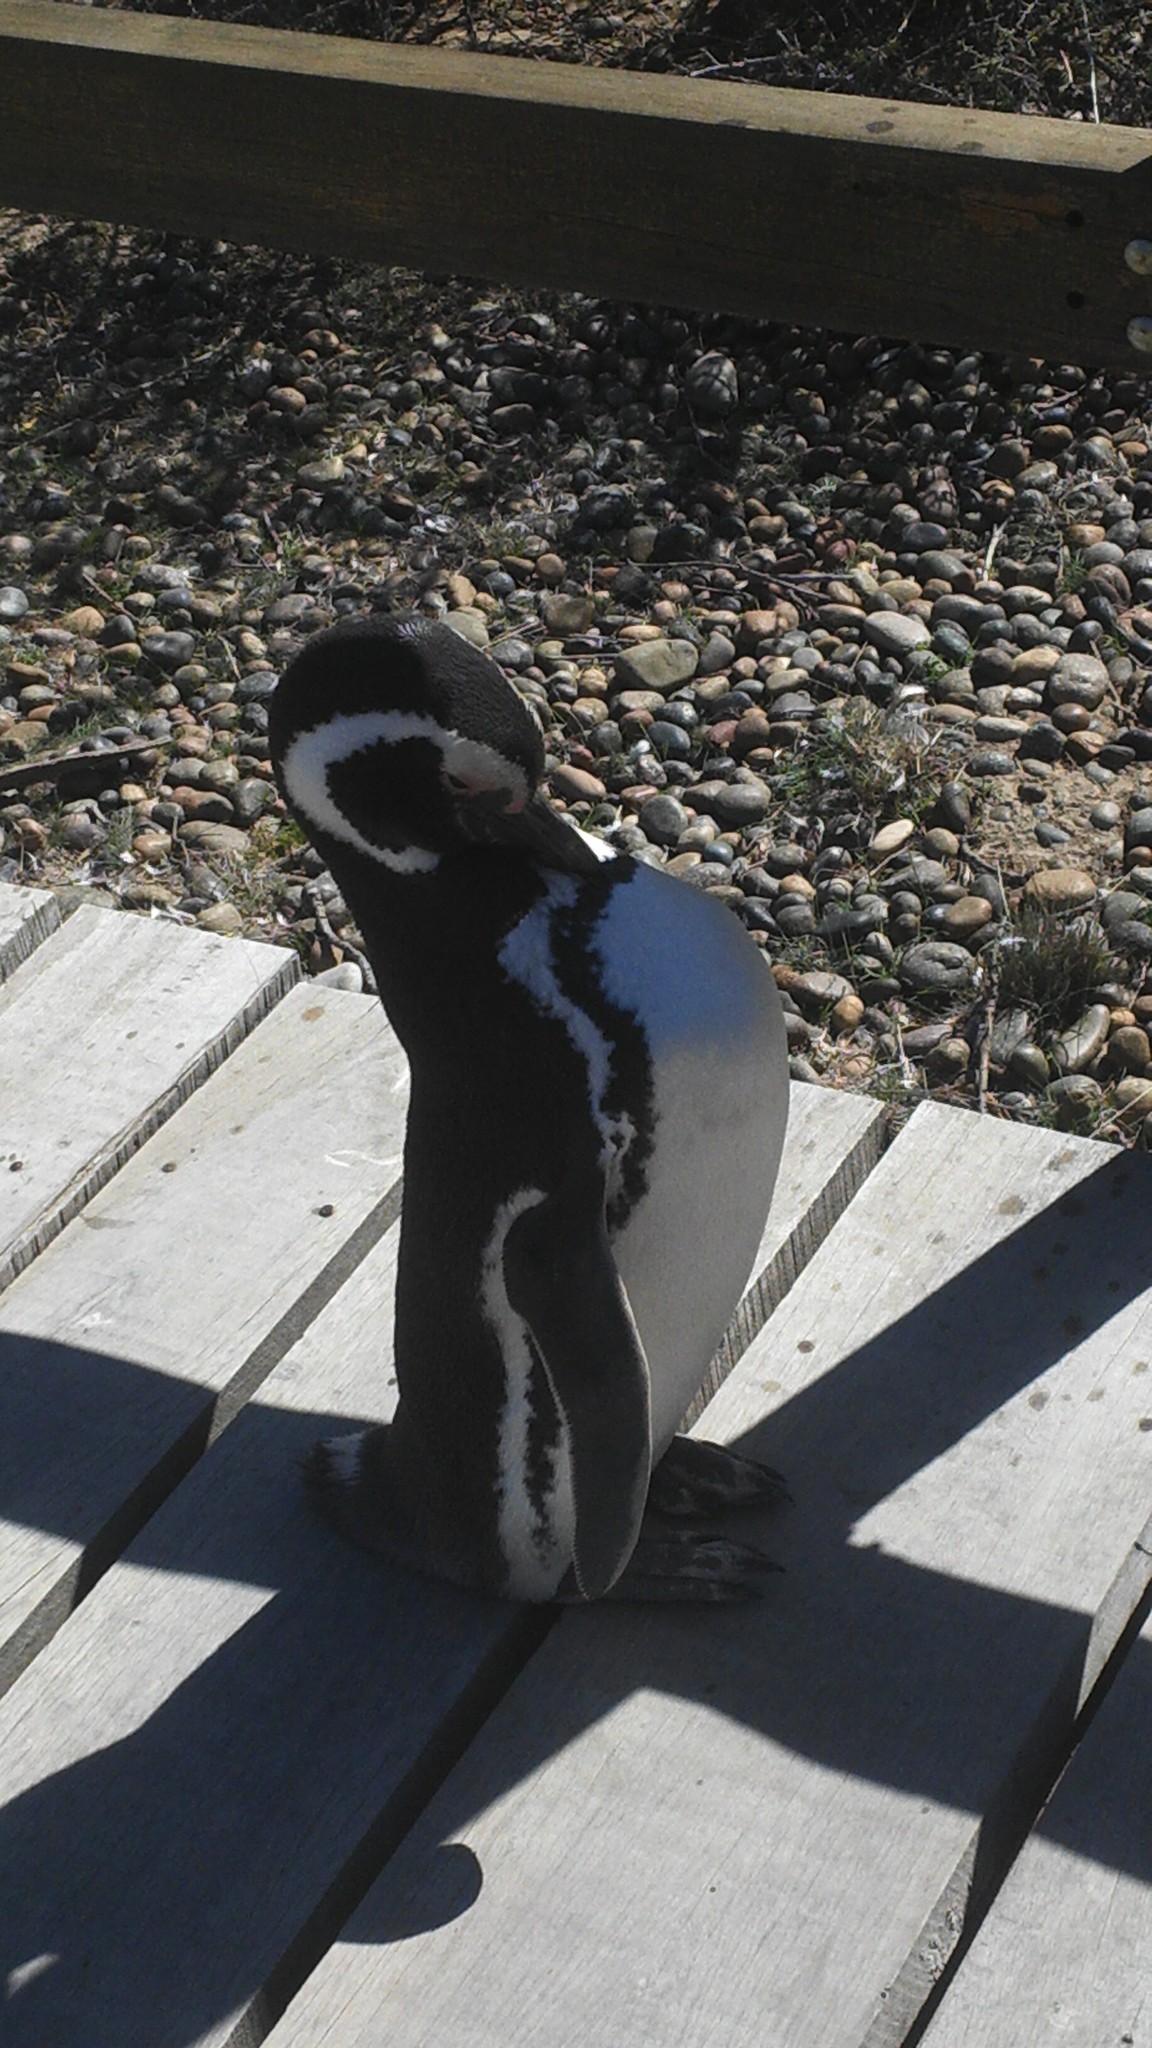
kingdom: Animalia
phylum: Chordata
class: Aves
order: Sphenisciformes
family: Spheniscidae
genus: Spheniscus
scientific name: Spheniscus magellanicus
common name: Magellanic penguin
